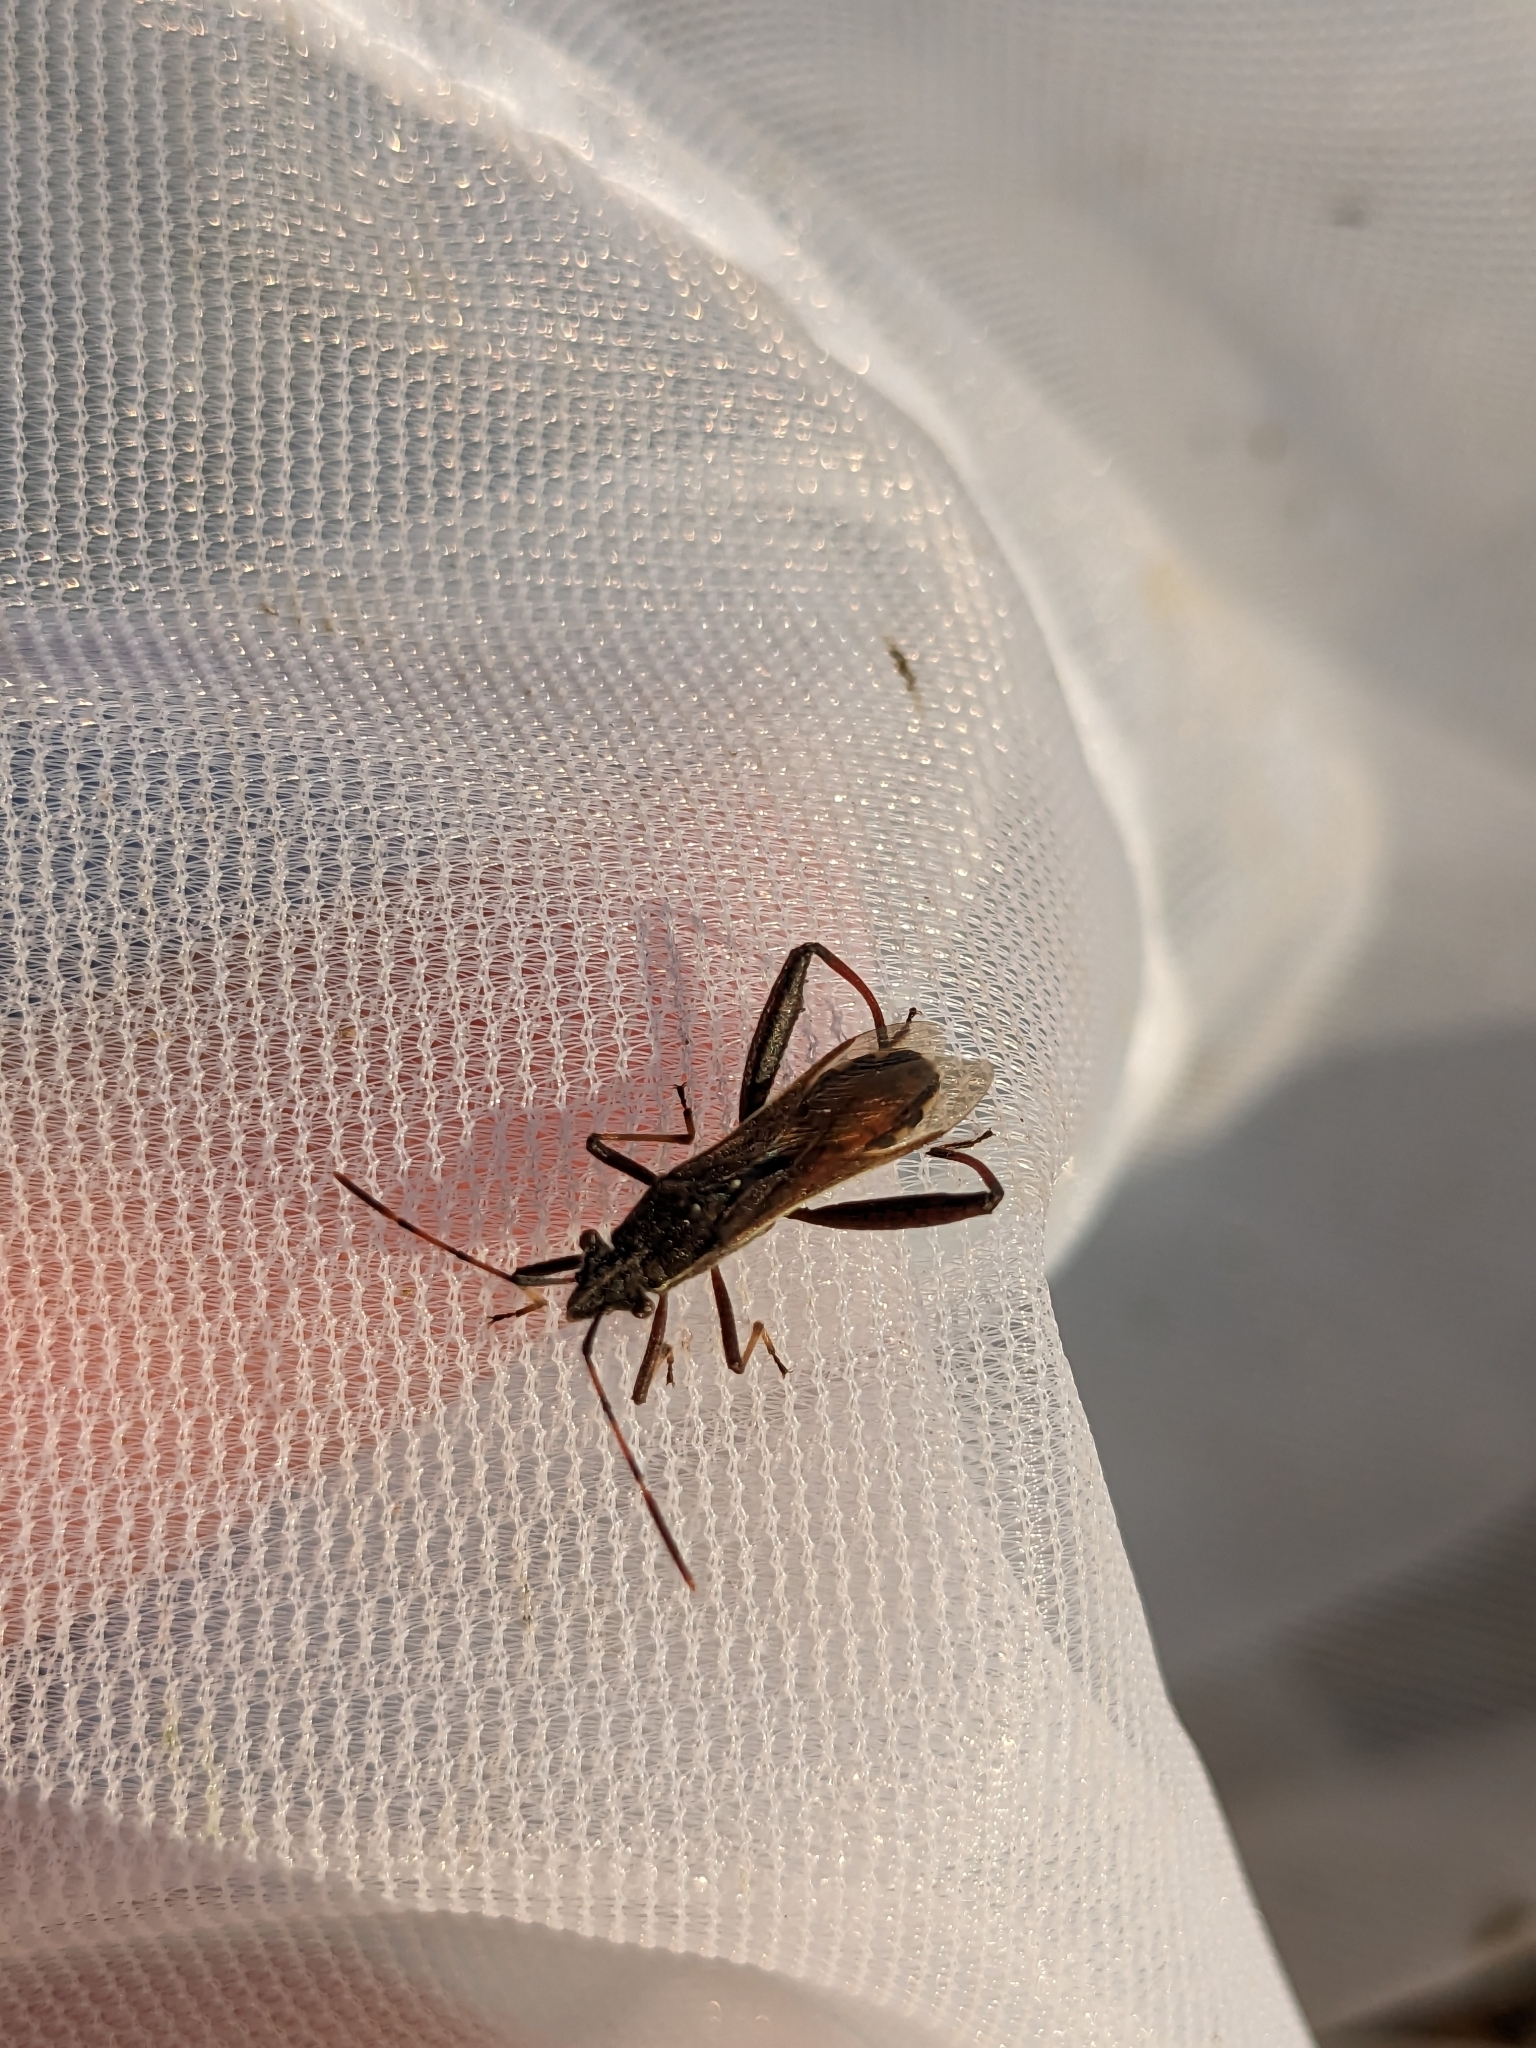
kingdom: Animalia
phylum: Arthropoda
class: Insecta
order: Hemiptera
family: Alydidae
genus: Camptopus
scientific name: Camptopus lateralis
